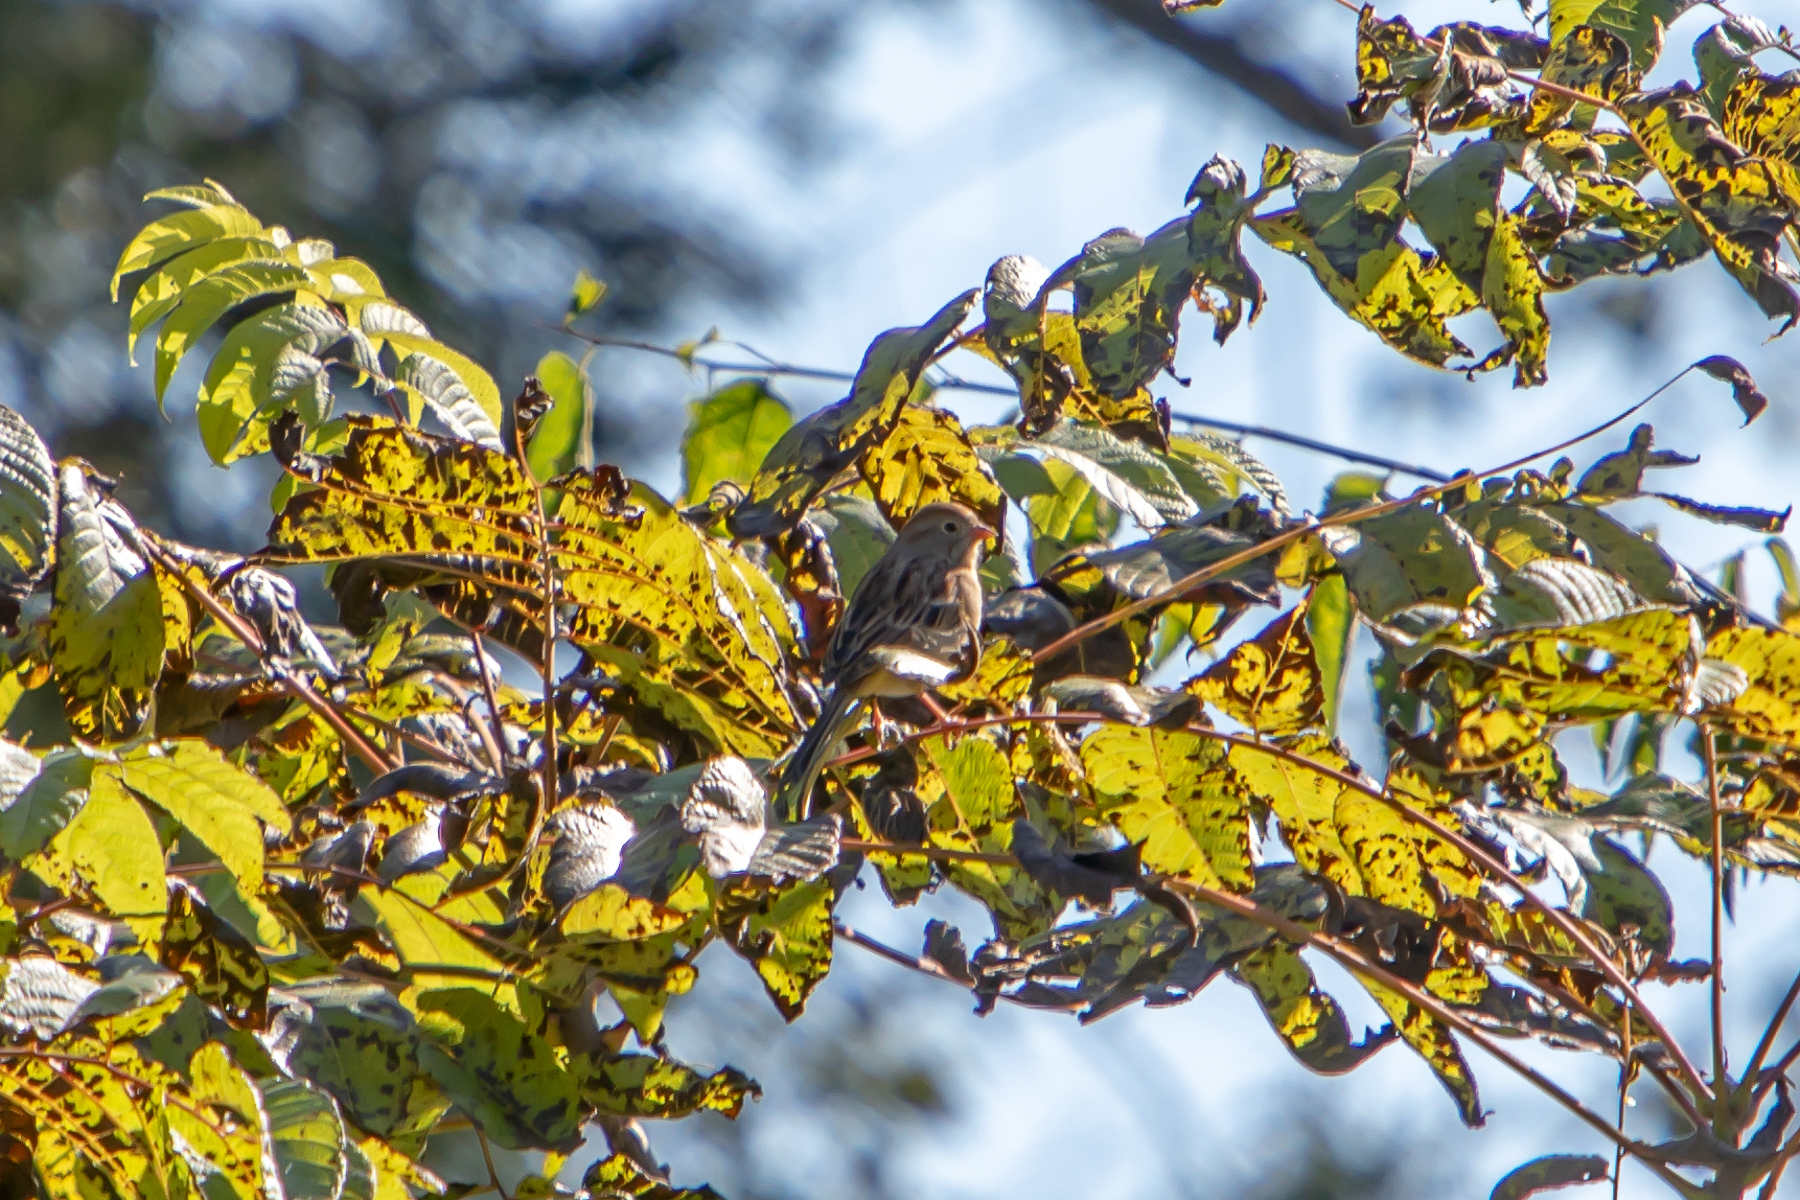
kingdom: Animalia
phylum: Chordata
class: Aves
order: Passeriformes
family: Passerellidae
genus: Spizella
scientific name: Spizella pusilla
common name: Field sparrow
